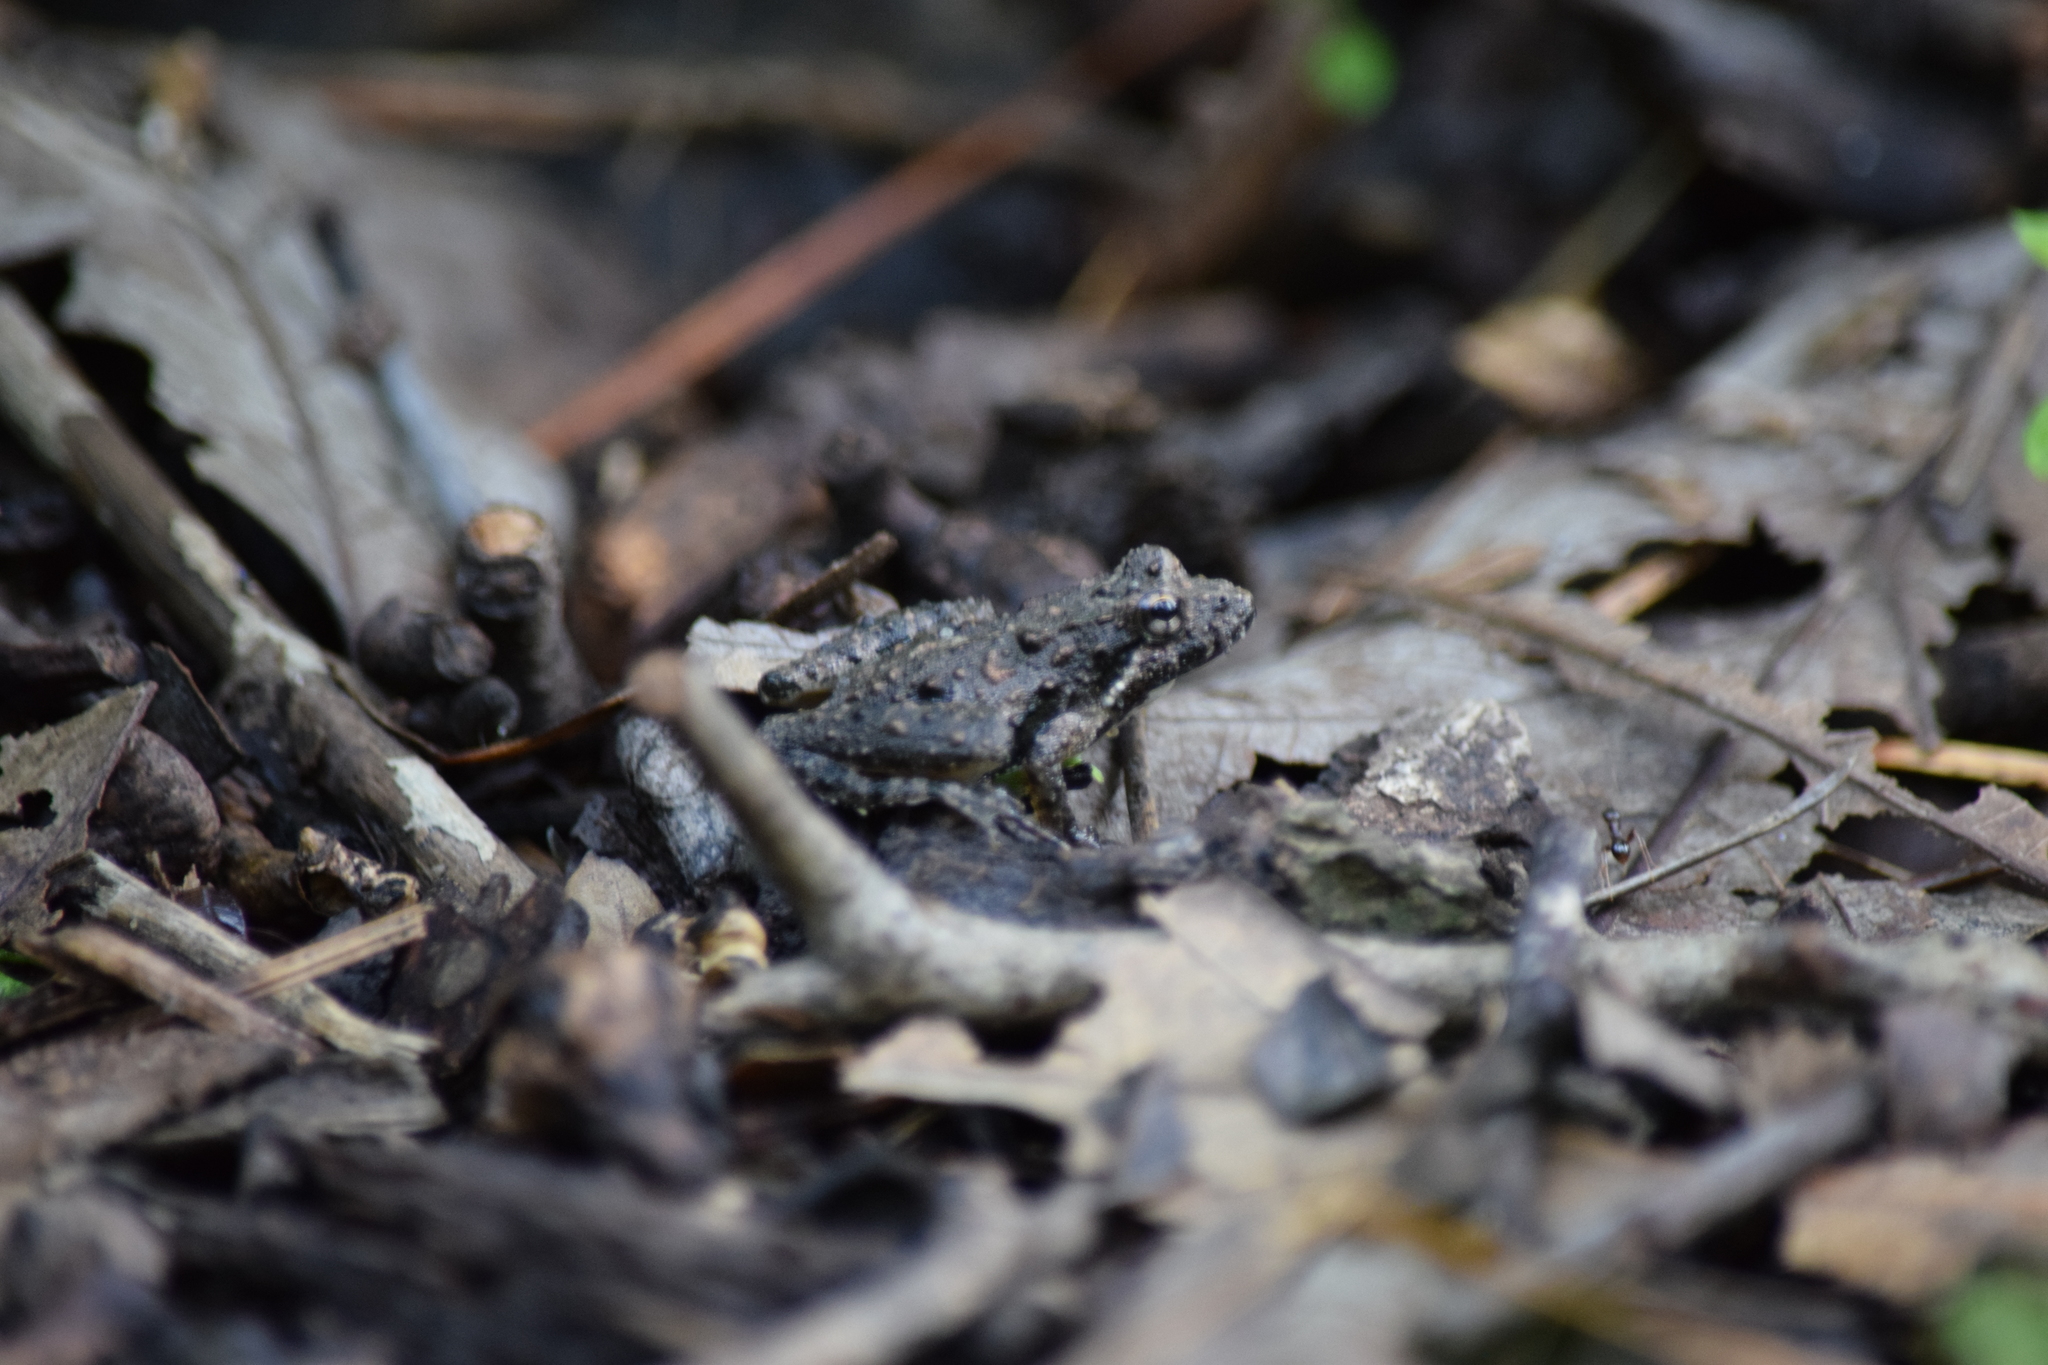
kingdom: Animalia
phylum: Chordata
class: Amphibia
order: Anura
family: Hylidae
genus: Acris
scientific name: Acris crepitans
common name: Northern cricket frog
